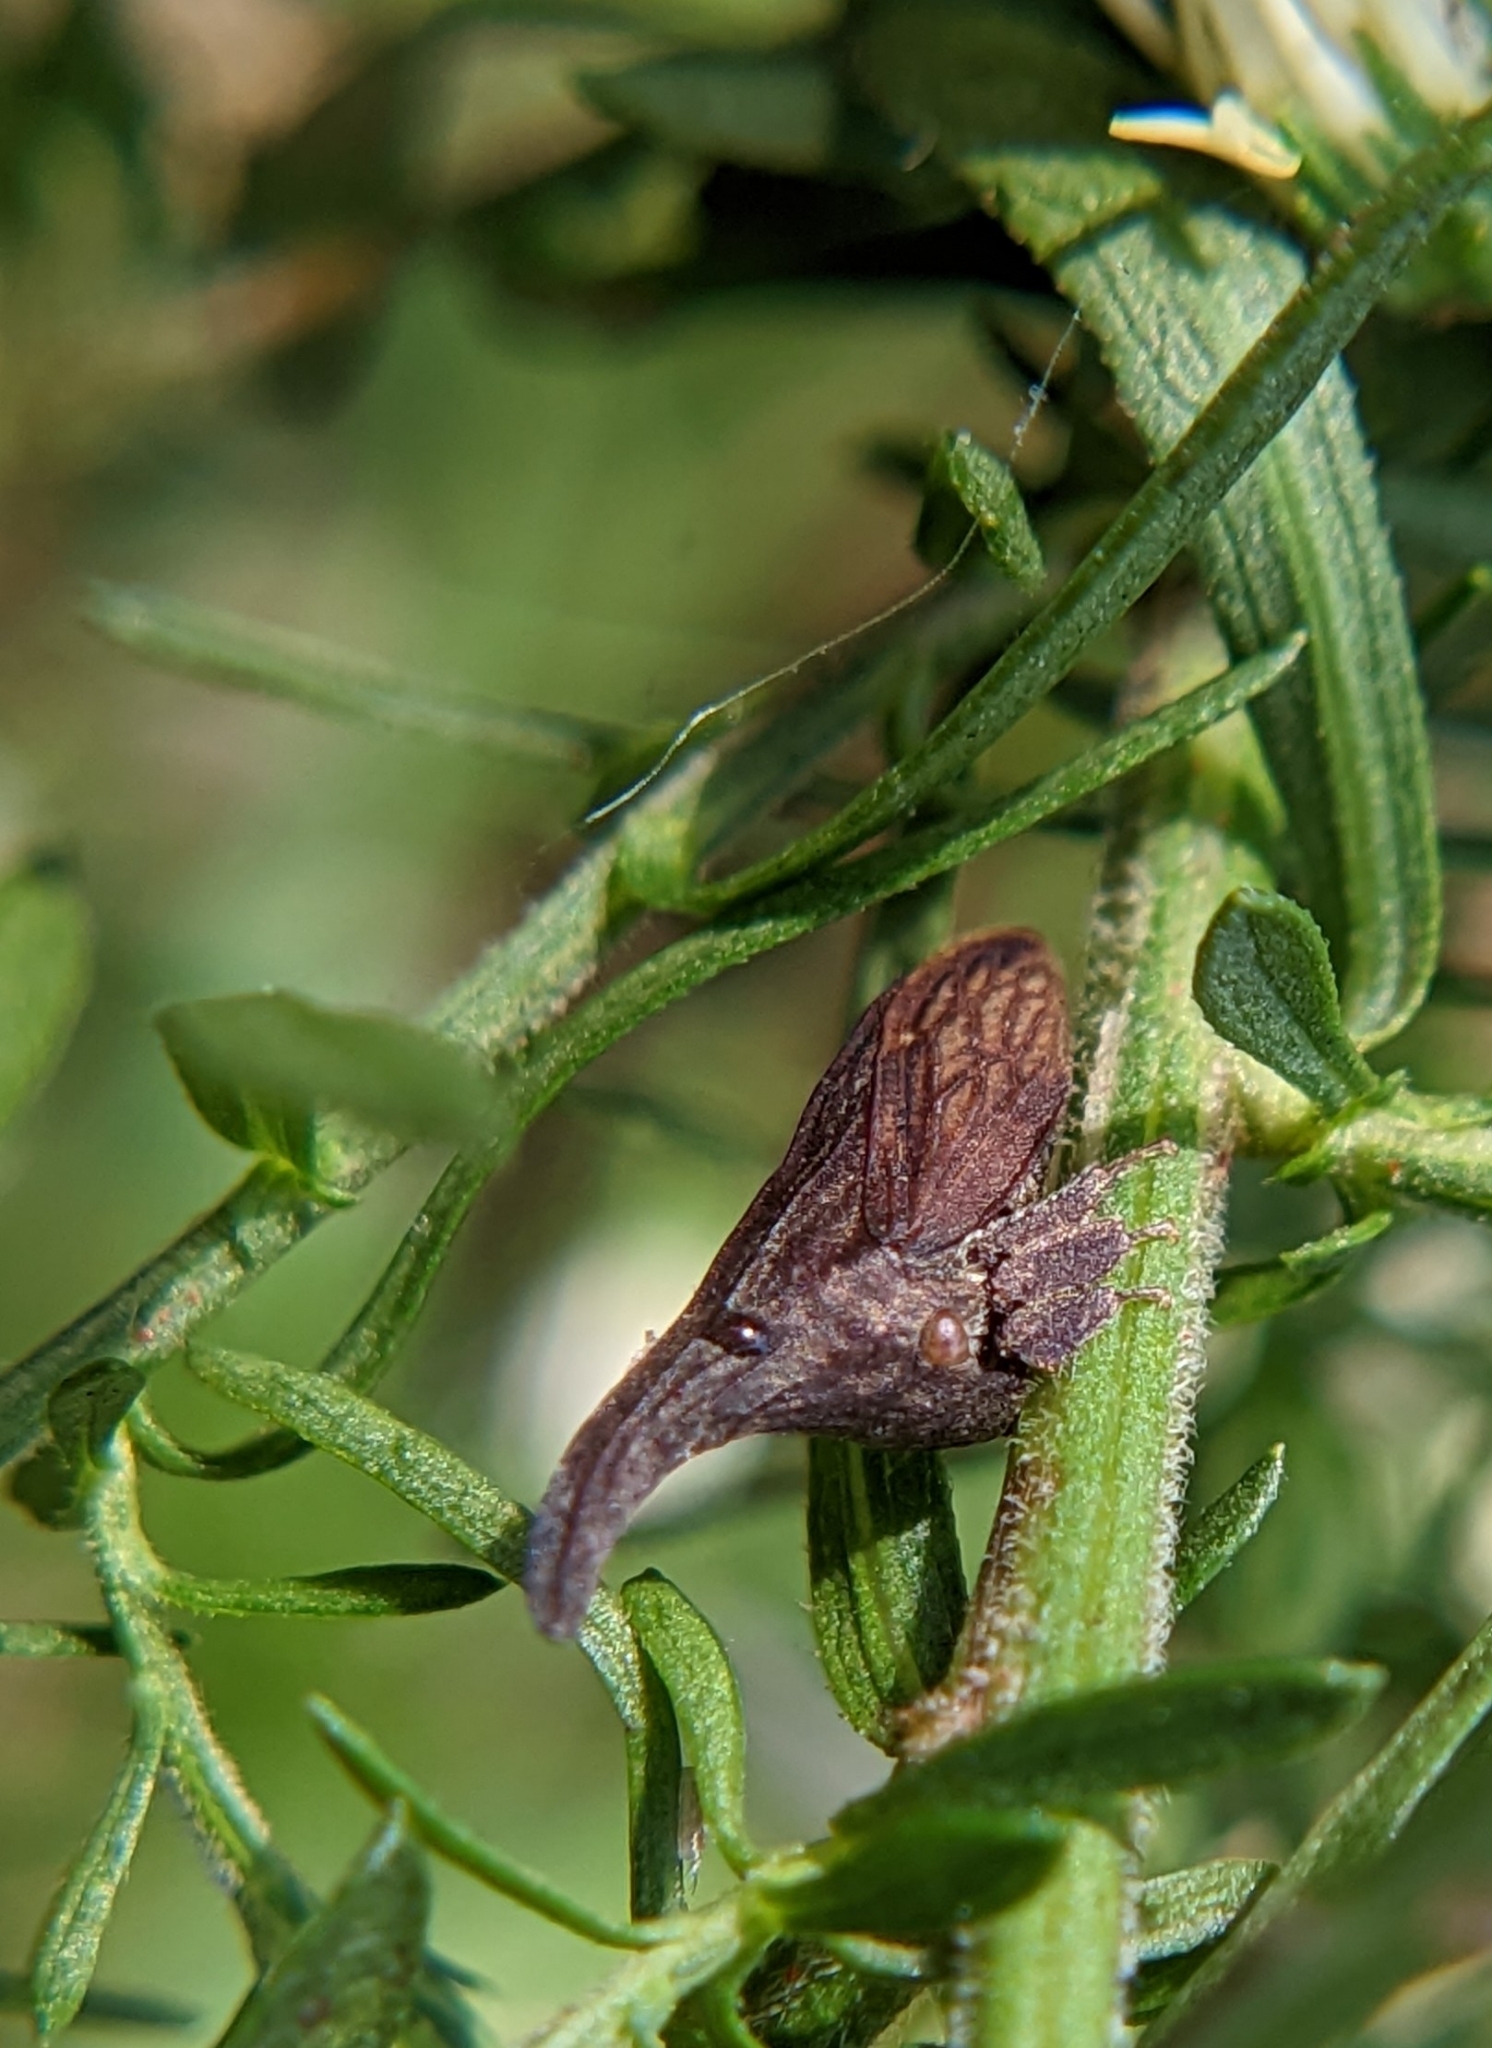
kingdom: Animalia
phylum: Arthropoda
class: Insecta
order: Hemiptera
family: Membracidae
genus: Enchenopa
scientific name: Enchenopa latipes
